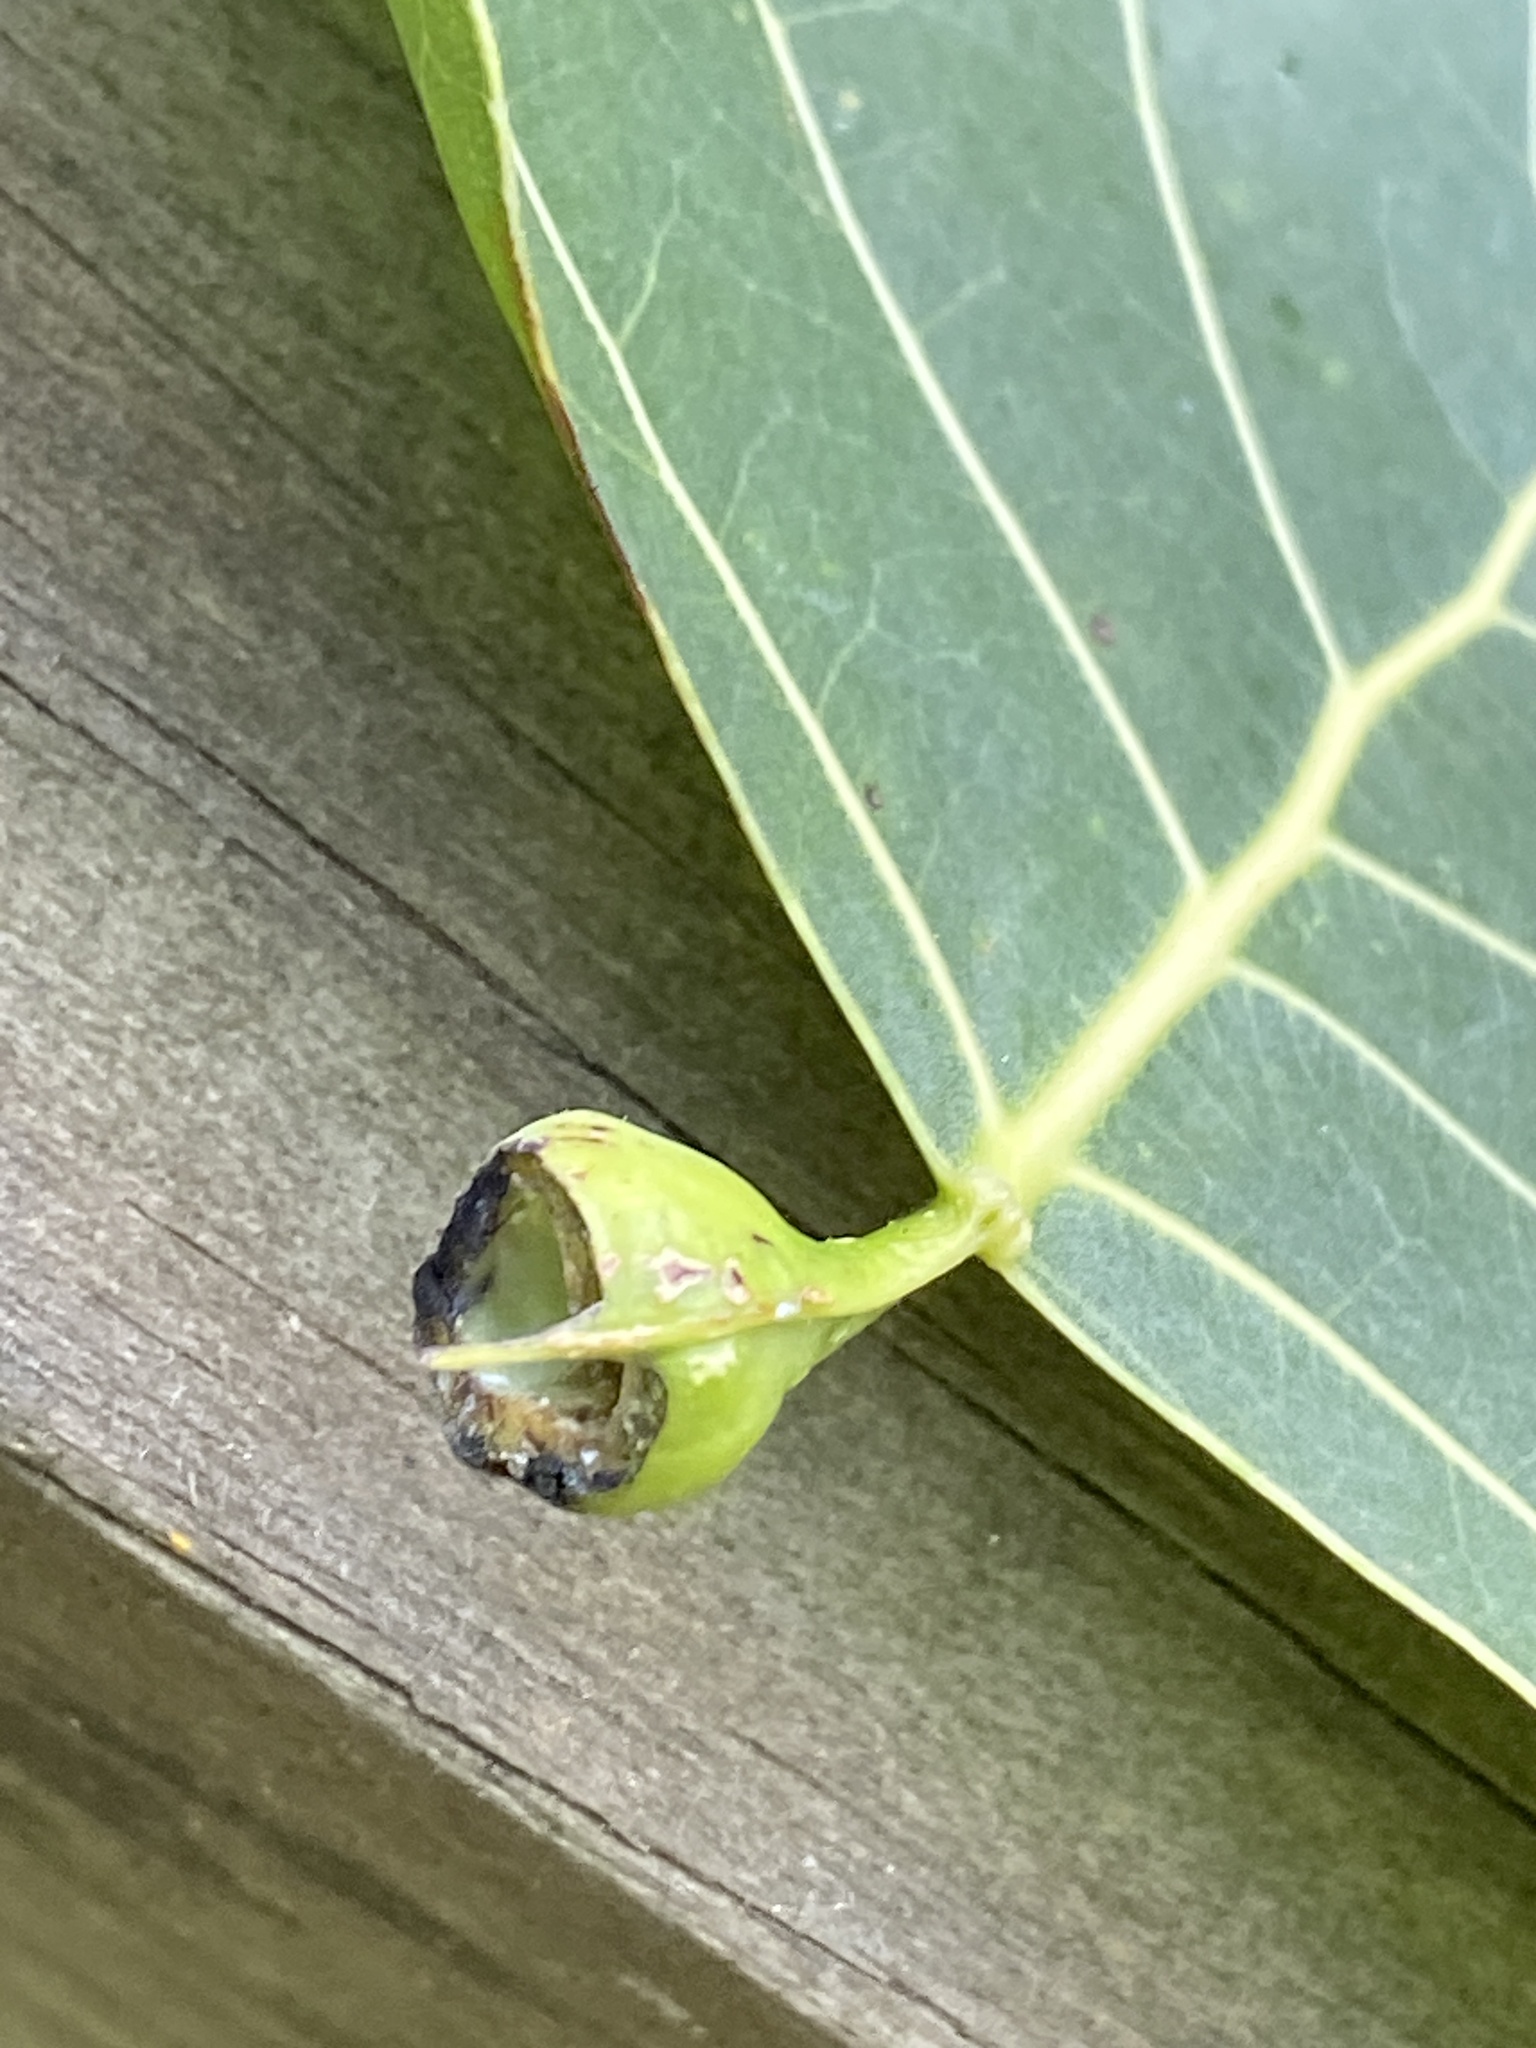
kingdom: Animalia
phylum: Arthropoda
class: Insecta
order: Hemiptera
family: Aphididae
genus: Pemphigus
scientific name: Pemphigus populitransversus
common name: Poplar petiolegall aphid
